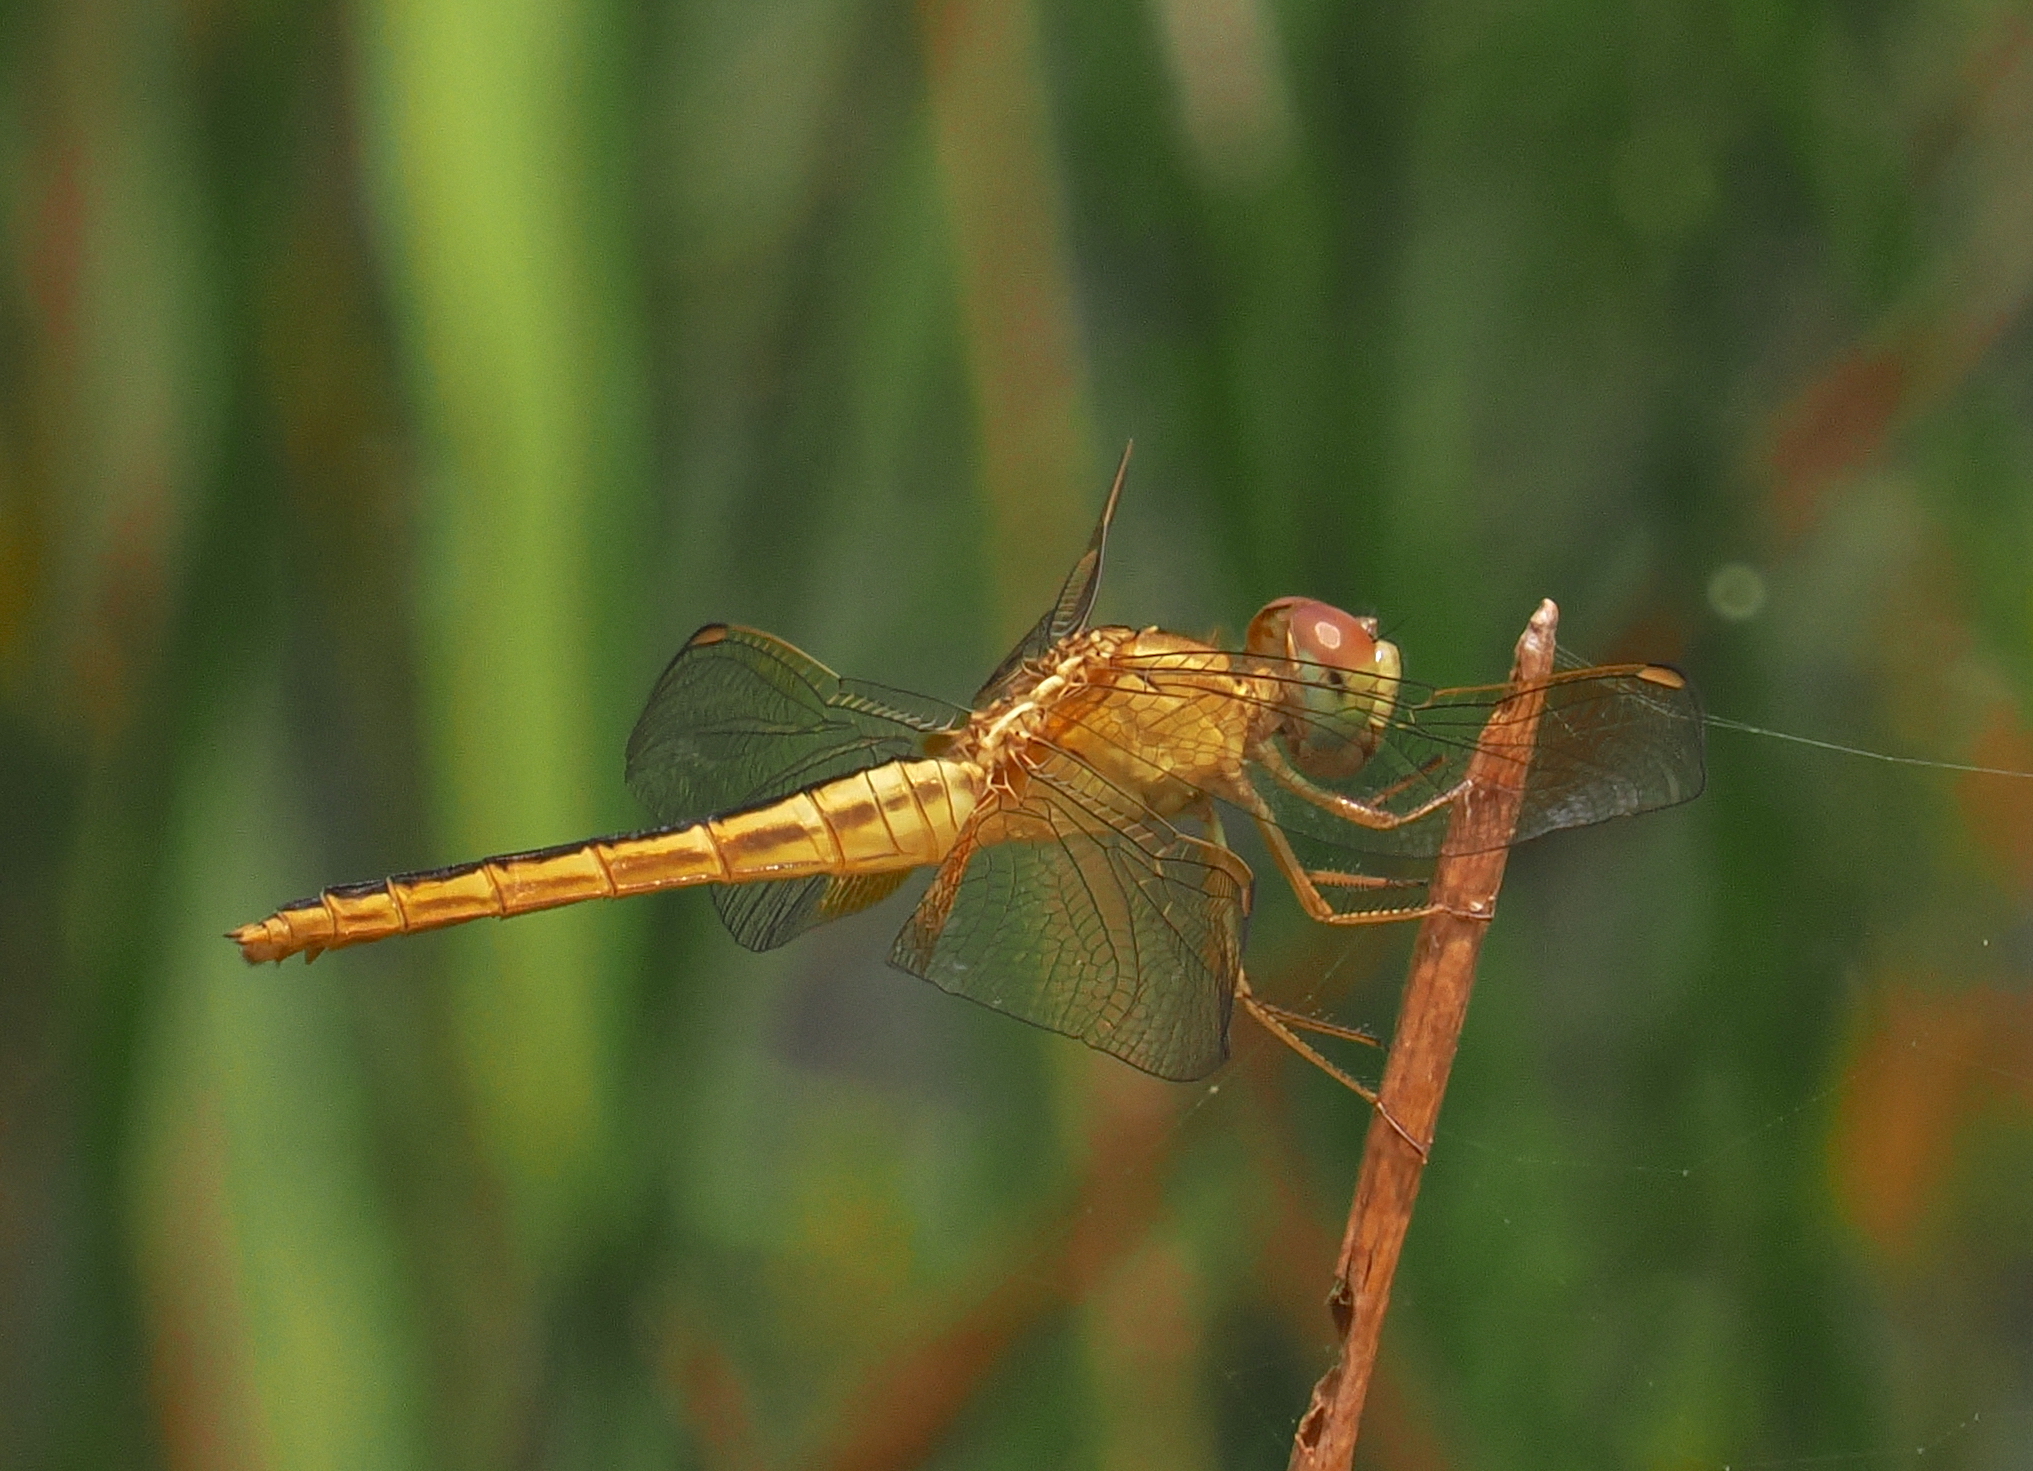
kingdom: Animalia
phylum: Arthropoda
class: Insecta
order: Odonata
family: Libellulidae
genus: Crocothemis
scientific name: Crocothemis servilia
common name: Scarlet skimmer
